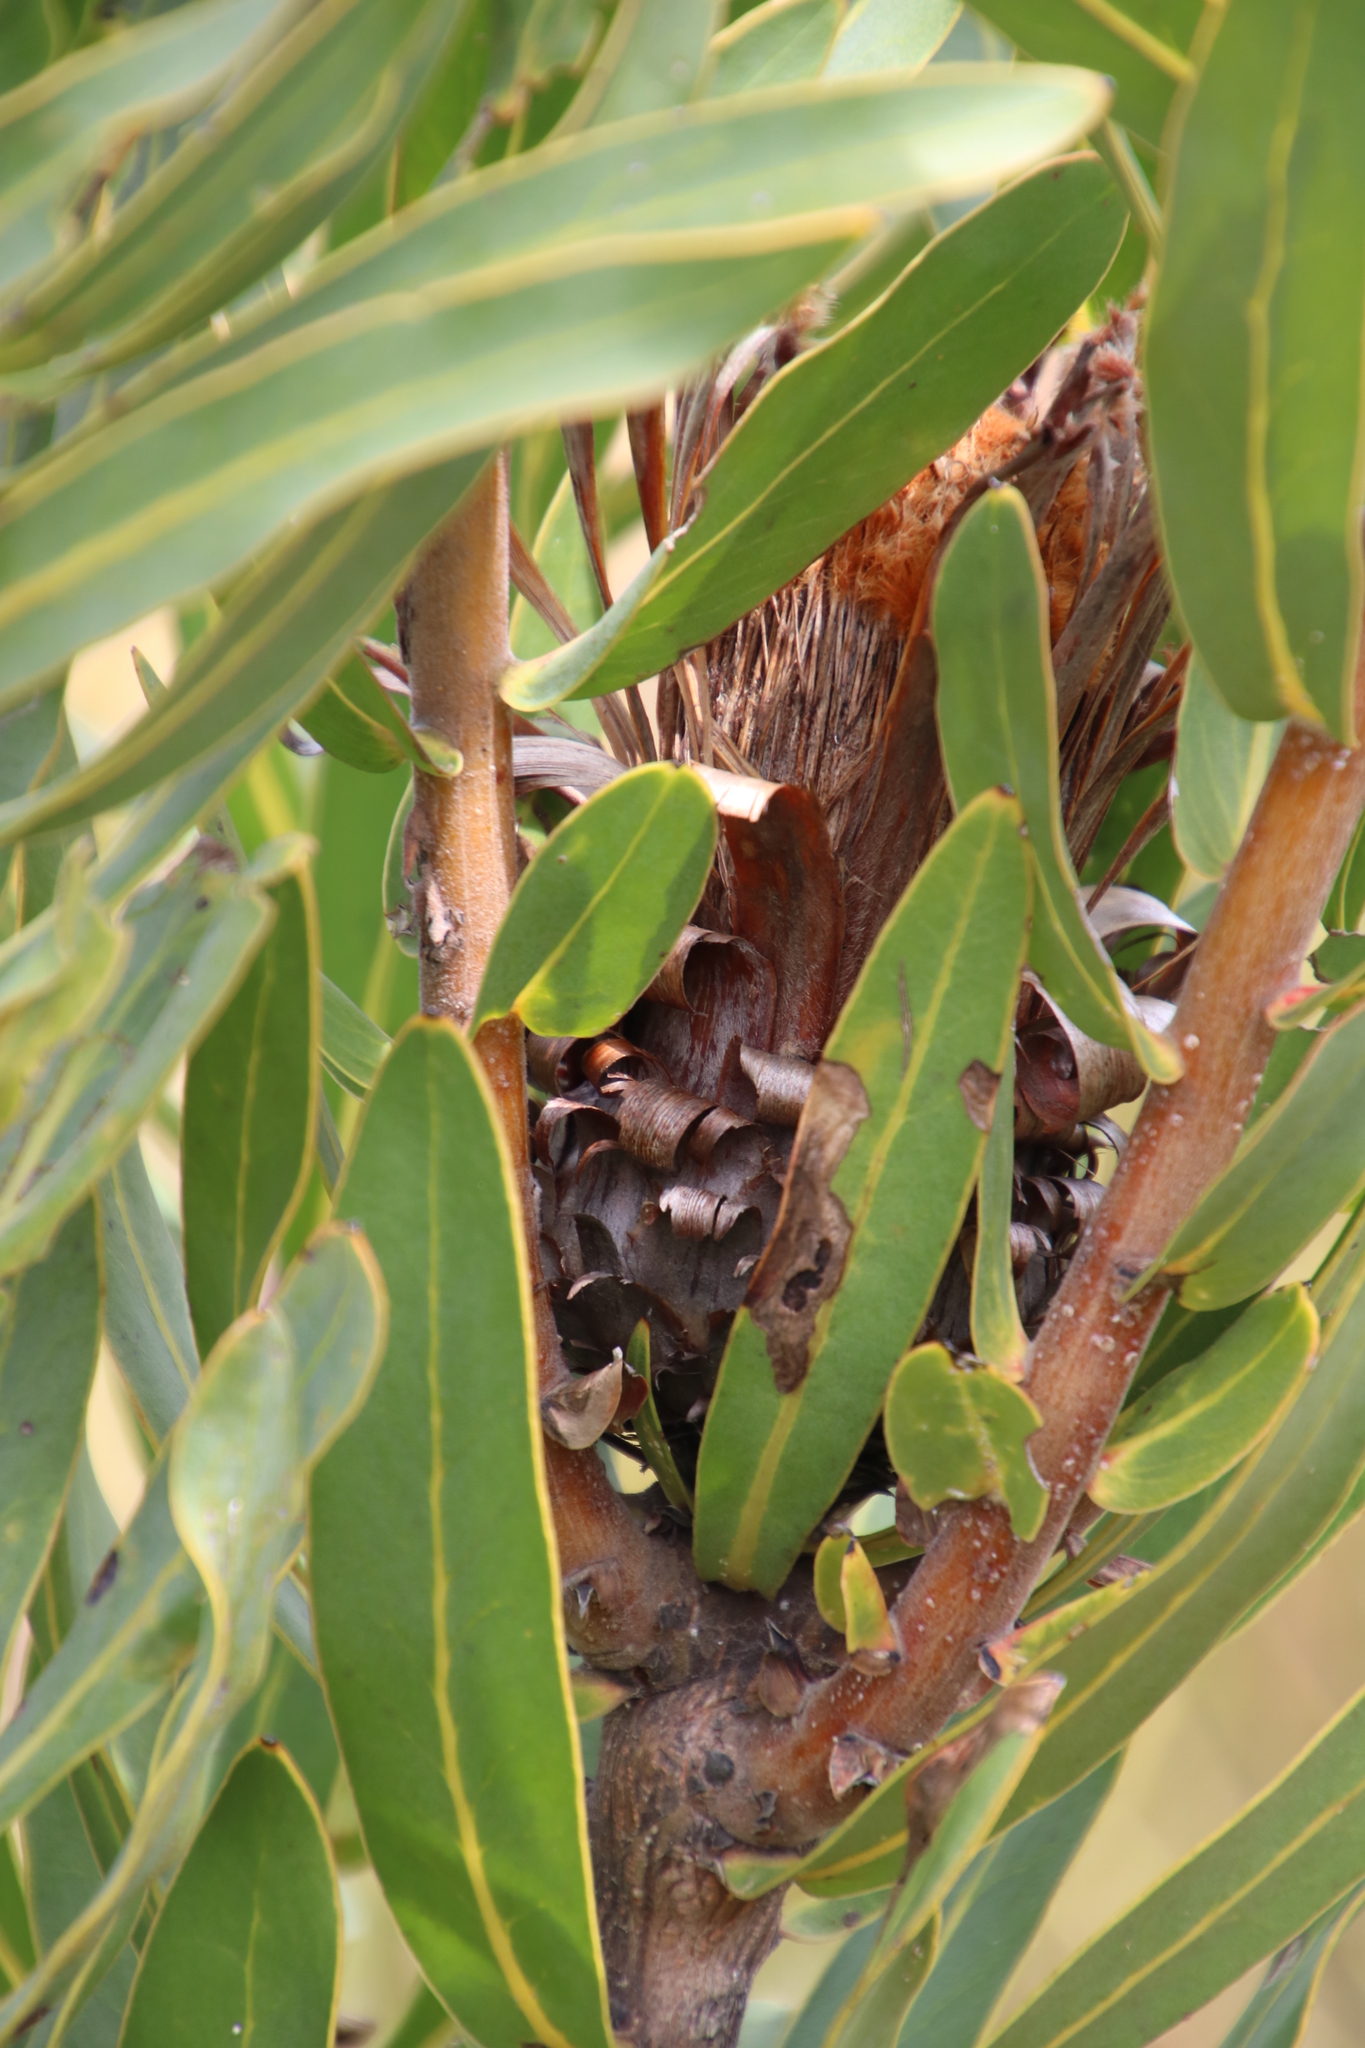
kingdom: Plantae
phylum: Tracheophyta
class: Magnoliopsida
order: Proteales
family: Proteaceae
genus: Protea
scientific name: Protea neriifolia
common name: Blue sugarbush
